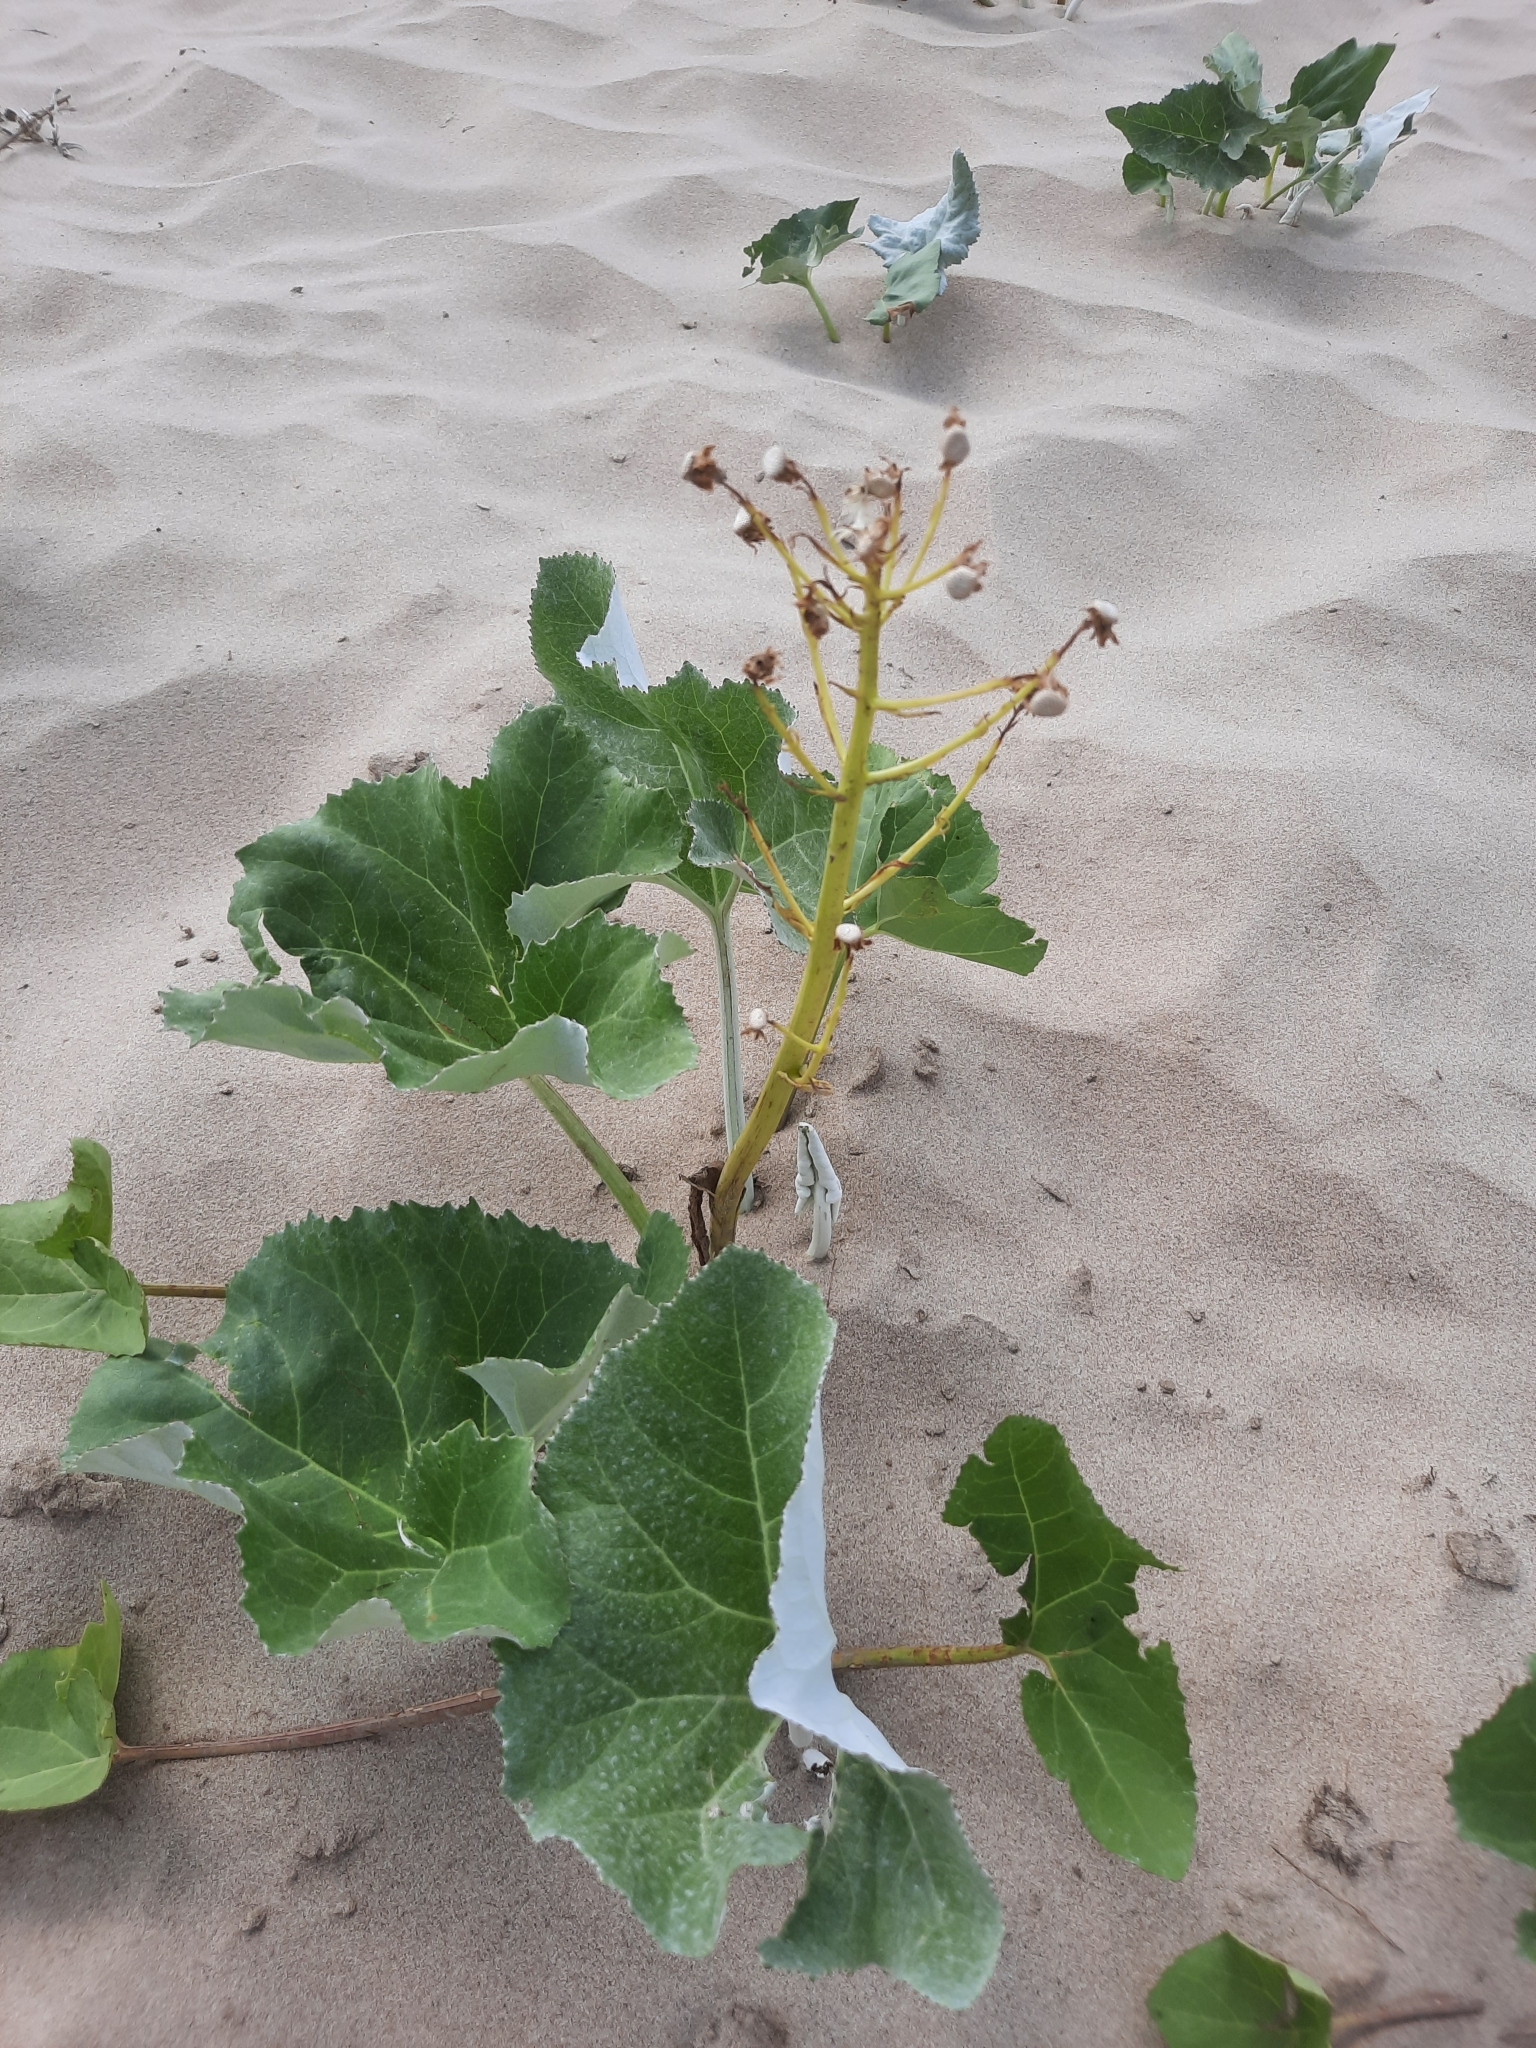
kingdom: Plantae
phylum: Tracheophyta
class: Magnoliopsida
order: Asterales
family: Asteraceae
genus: Petasites
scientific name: Petasites spurius
